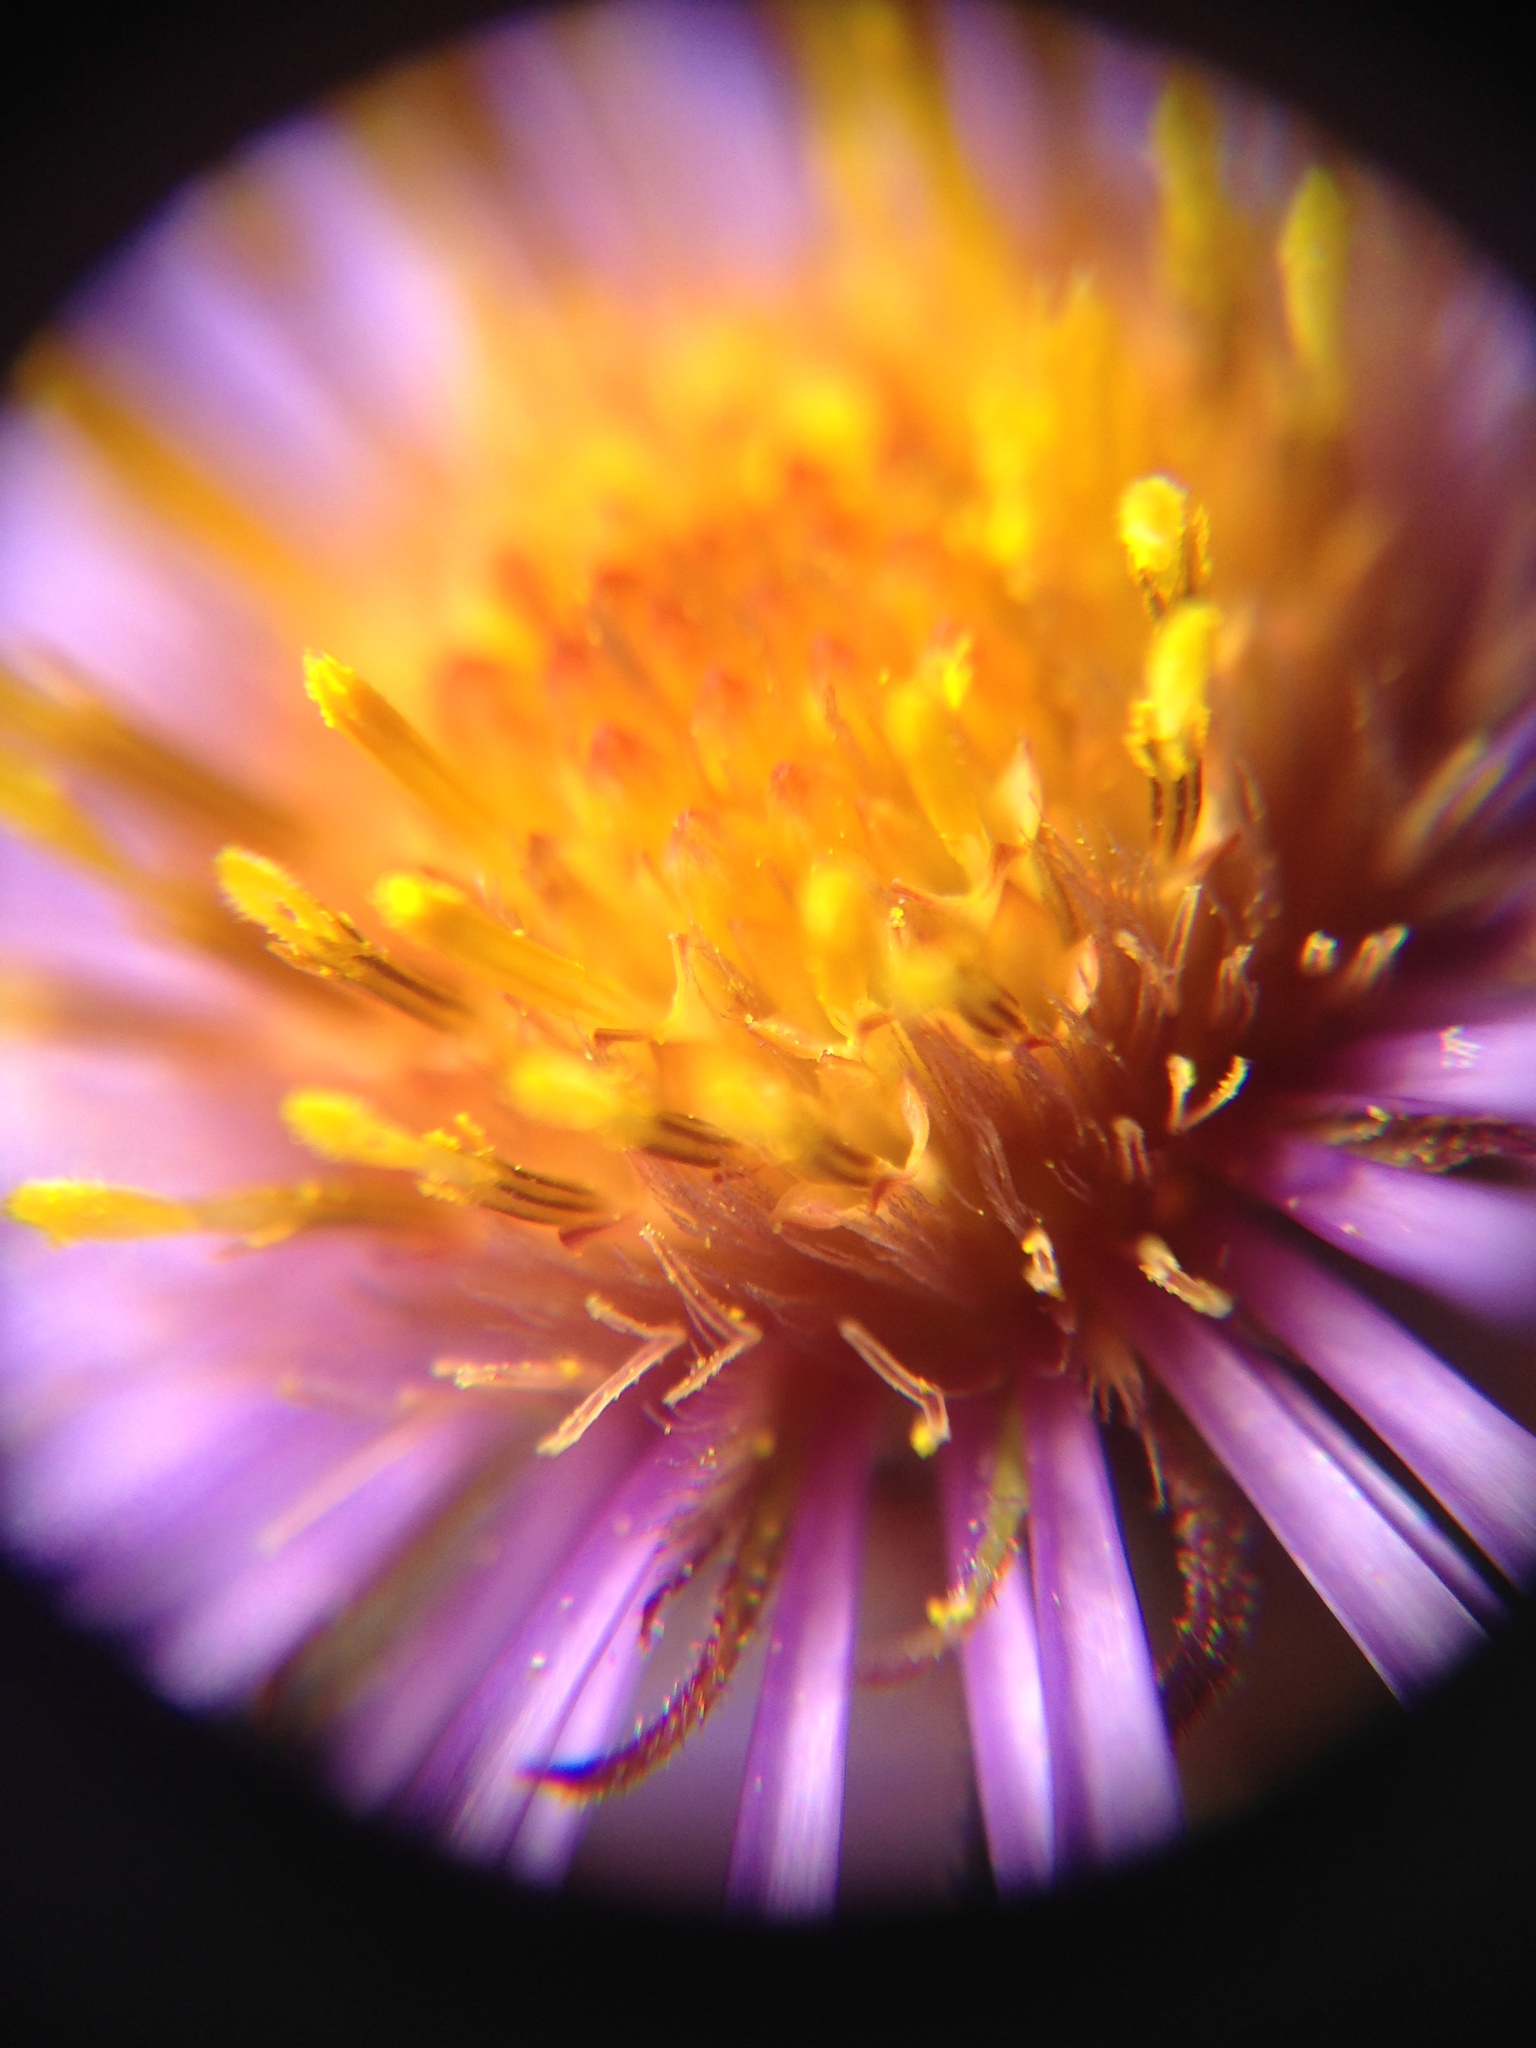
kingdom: Plantae
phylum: Tracheophyta
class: Magnoliopsida
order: Asterales
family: Asteraceae
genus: Symphyotrichum
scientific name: Symphyotrichum novae-angliae
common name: Michaelmas daisy
